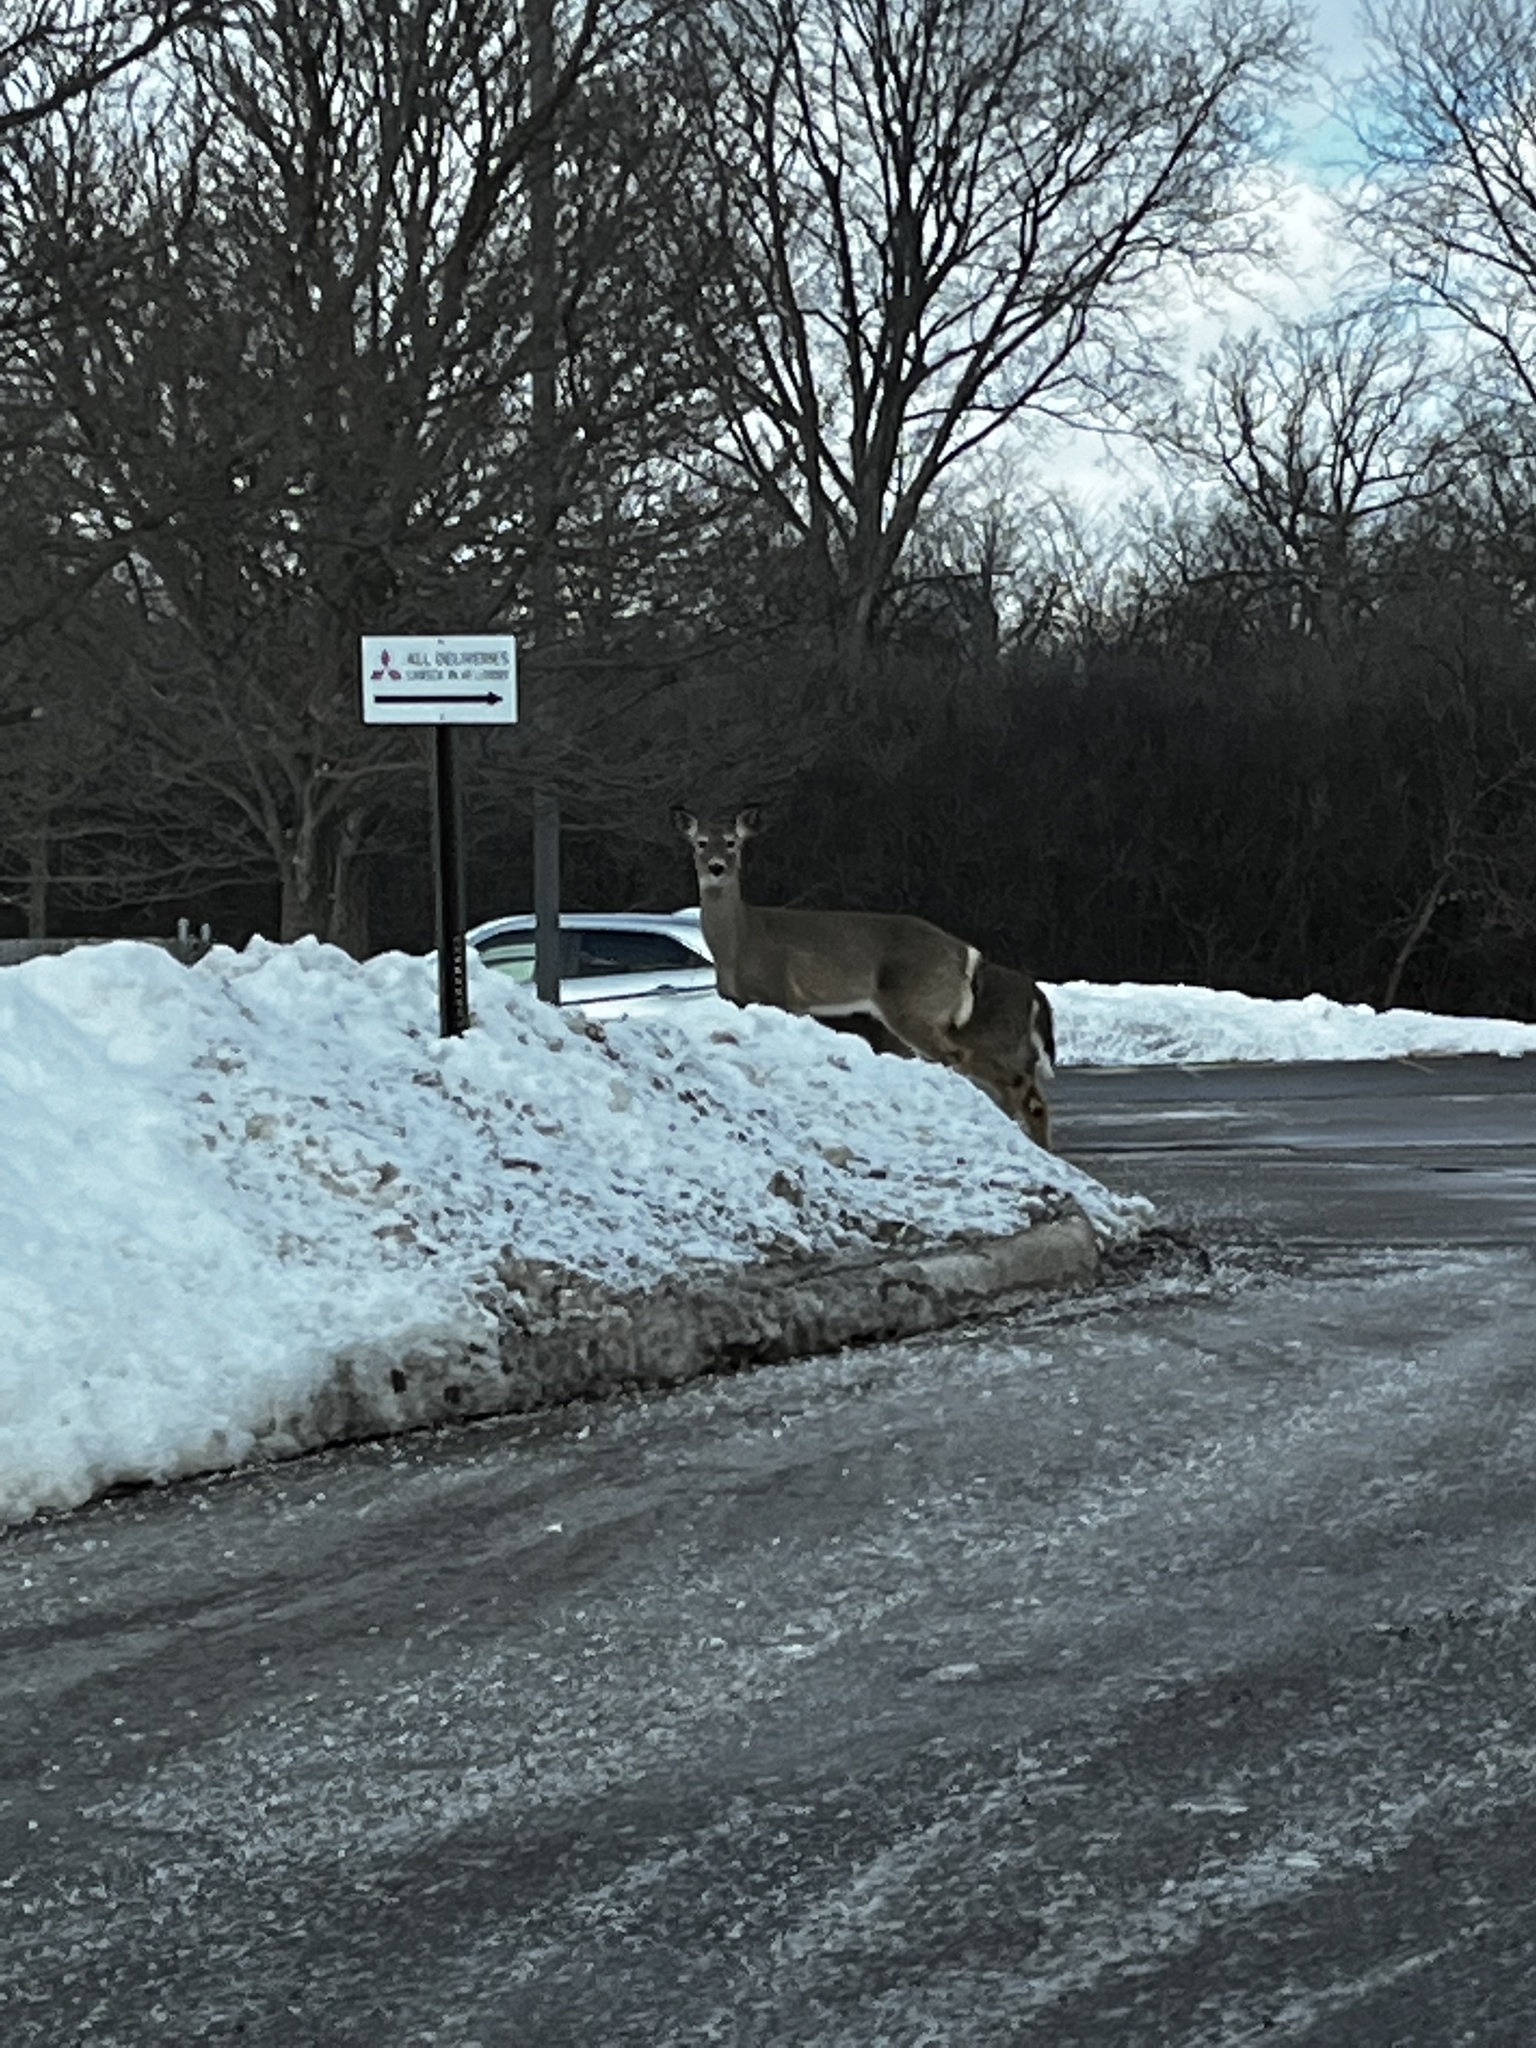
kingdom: Animalia
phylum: Chordata
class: Mammalia
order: Artiodactyla
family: Cervidae
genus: Odocoileus
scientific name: Odocoileus virginianus
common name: White-tailed deer
